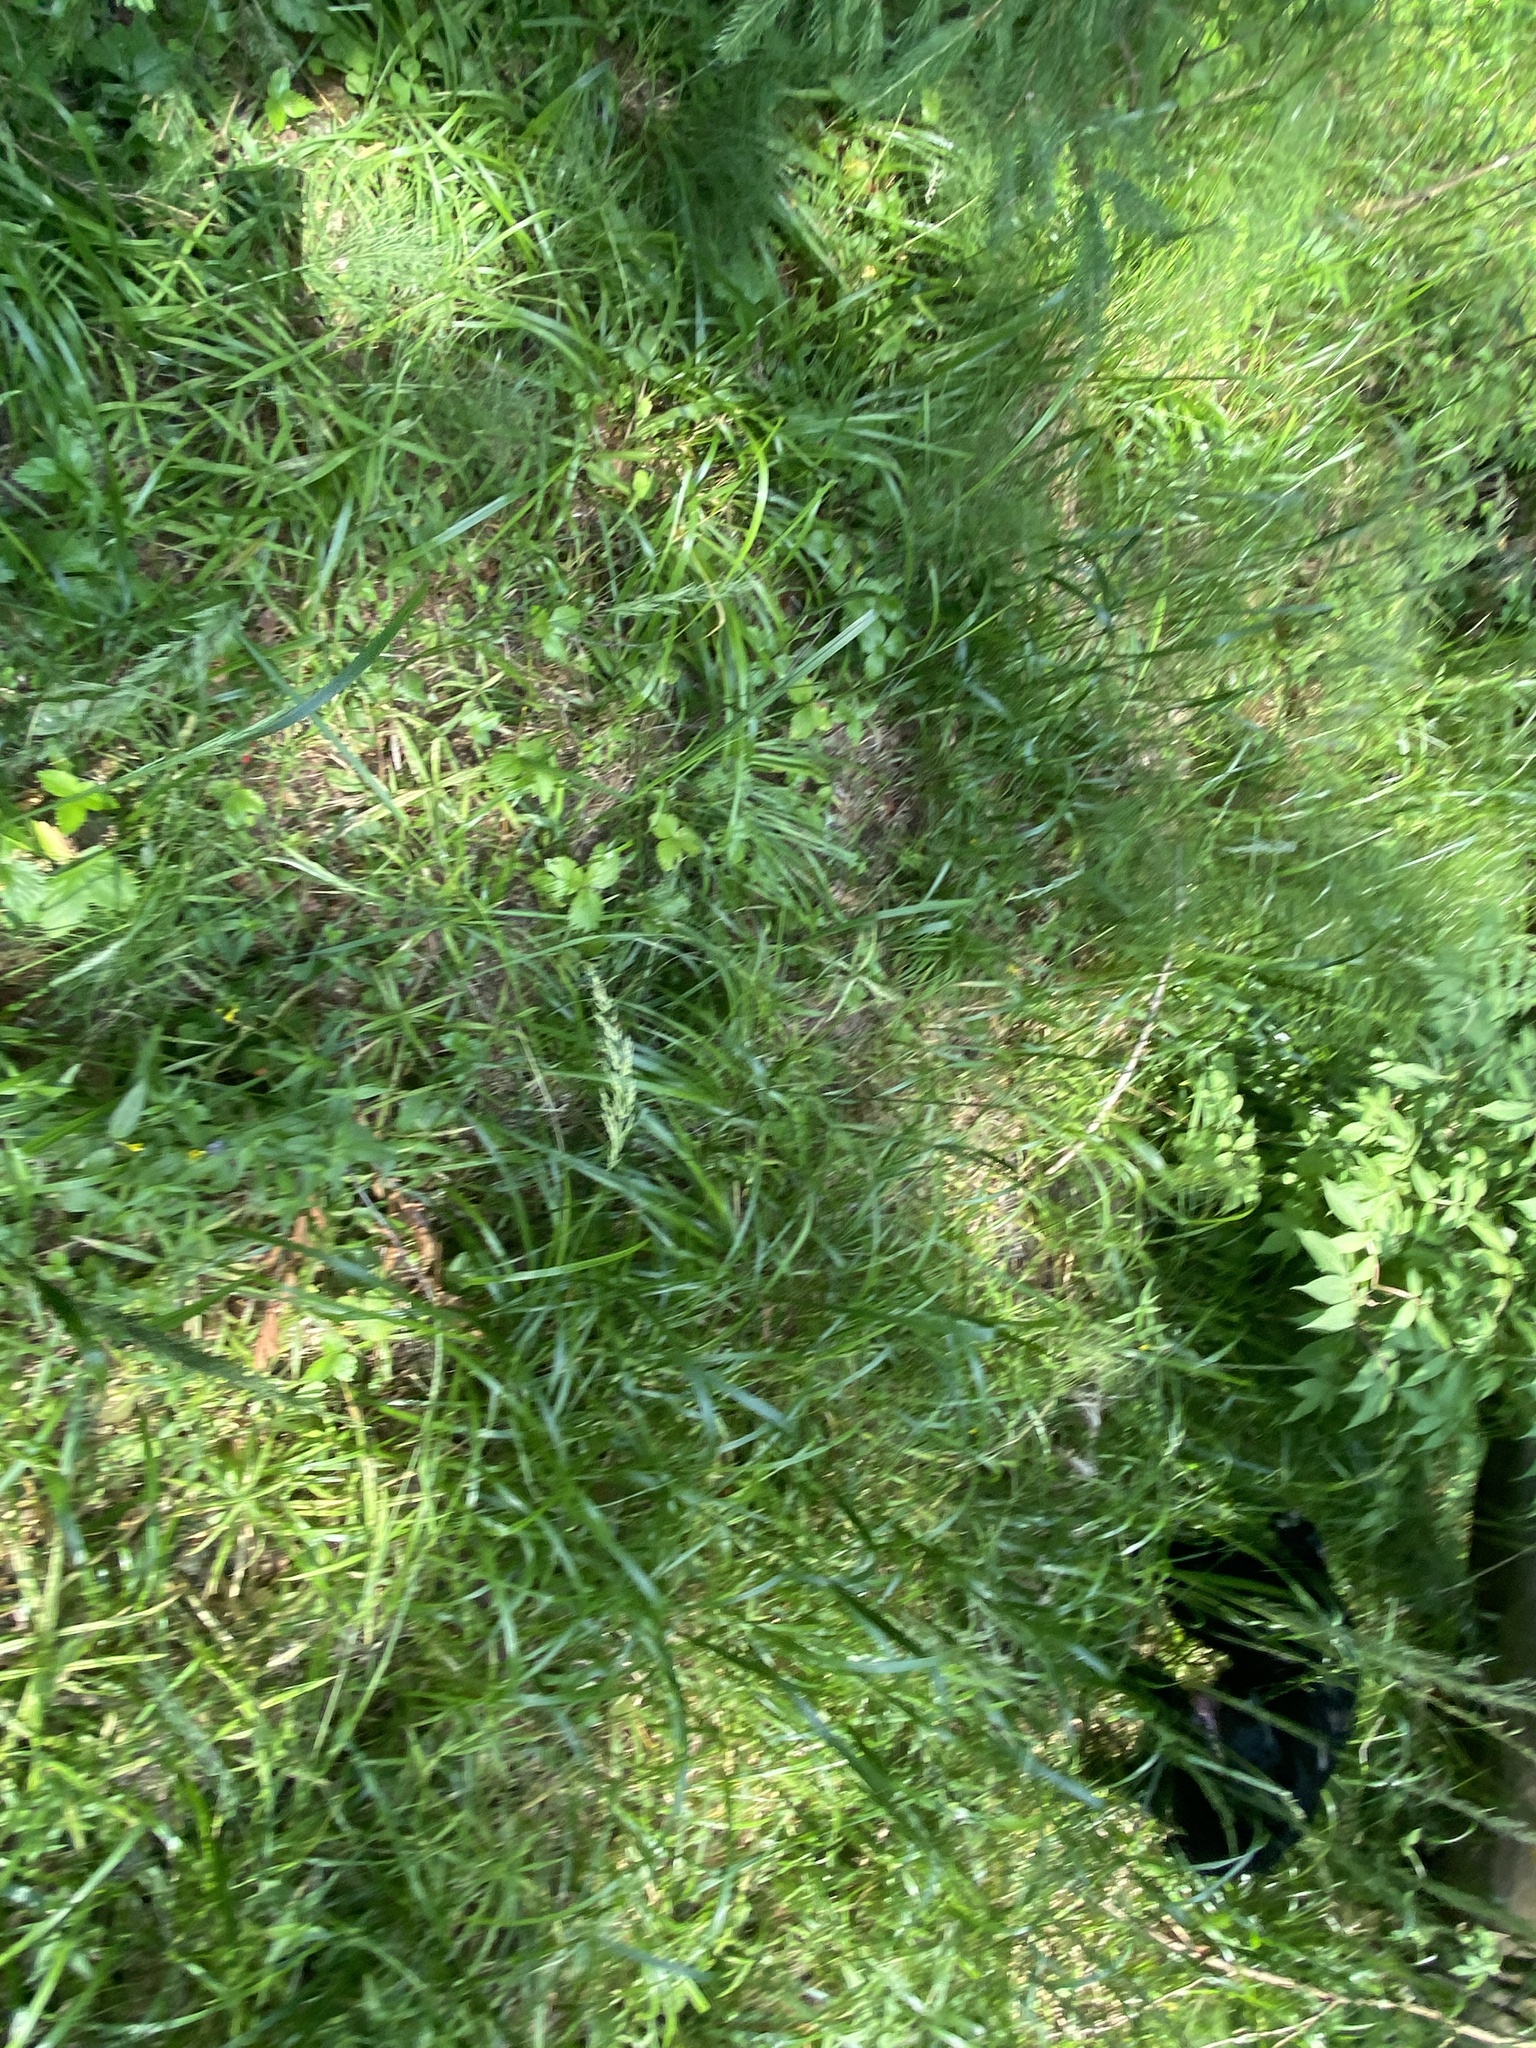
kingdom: Plantae
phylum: Tracheophyta
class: Liliopsida
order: Poales
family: Poaceae
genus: Calamagrostis
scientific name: Calamagrostis arundinacea
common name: Metskastik
